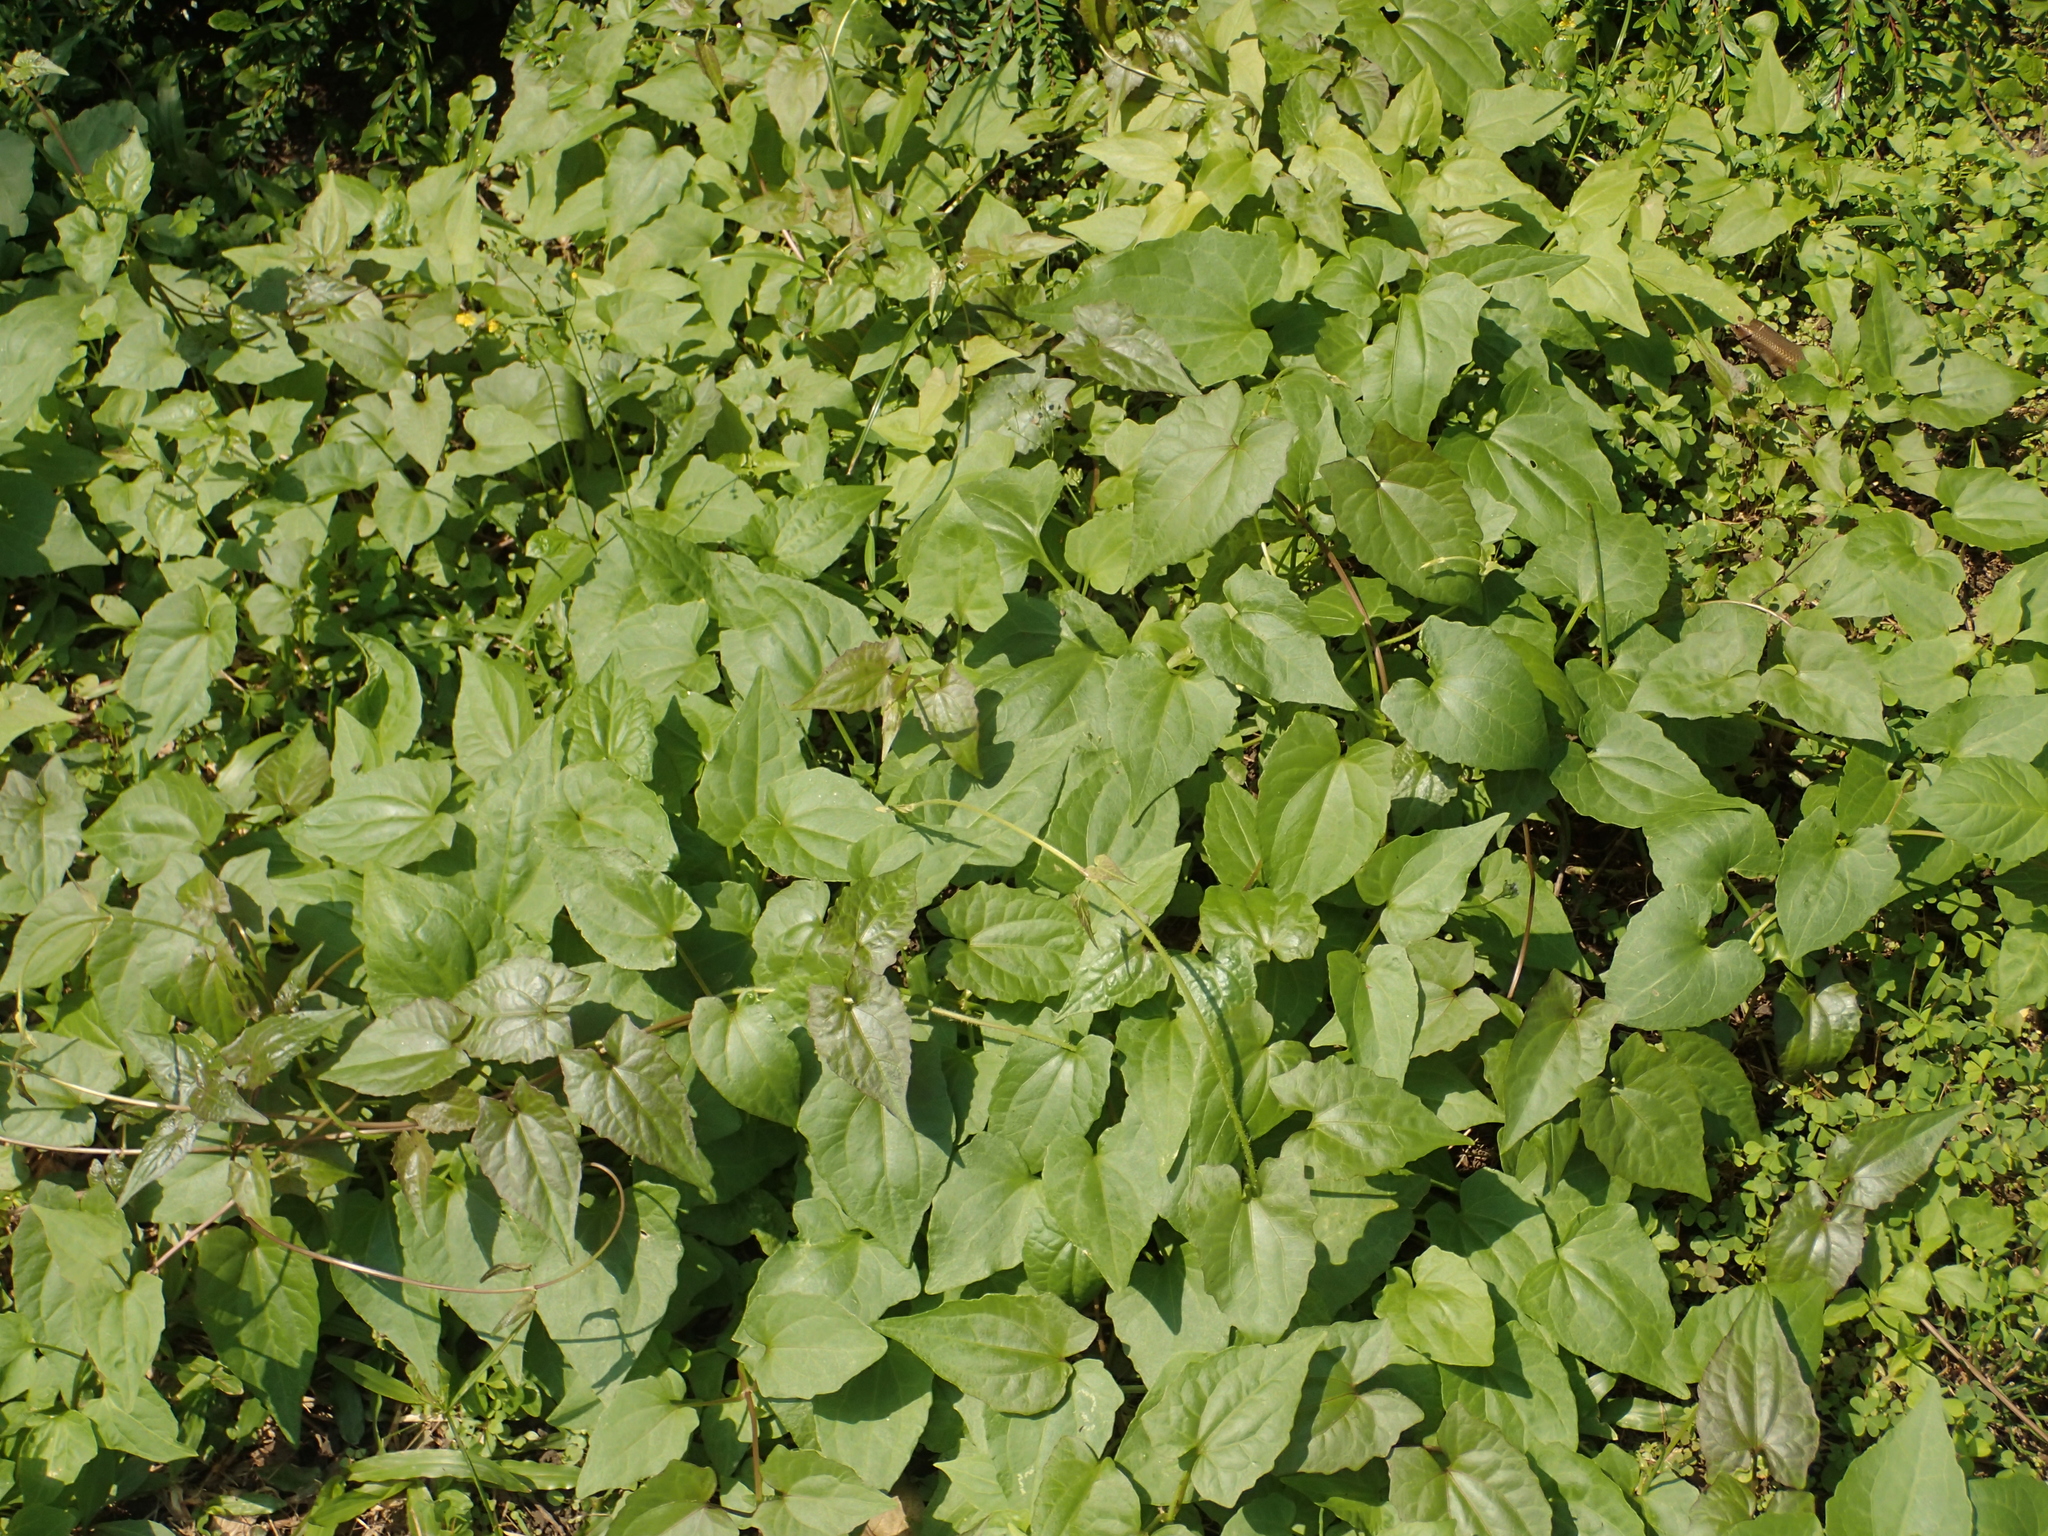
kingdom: Plantae
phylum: Tracheophyta
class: Magnoliopsida
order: Asterales
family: Asteraceae
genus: Mikania
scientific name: Mikania micrantha
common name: Mile-a-minute
